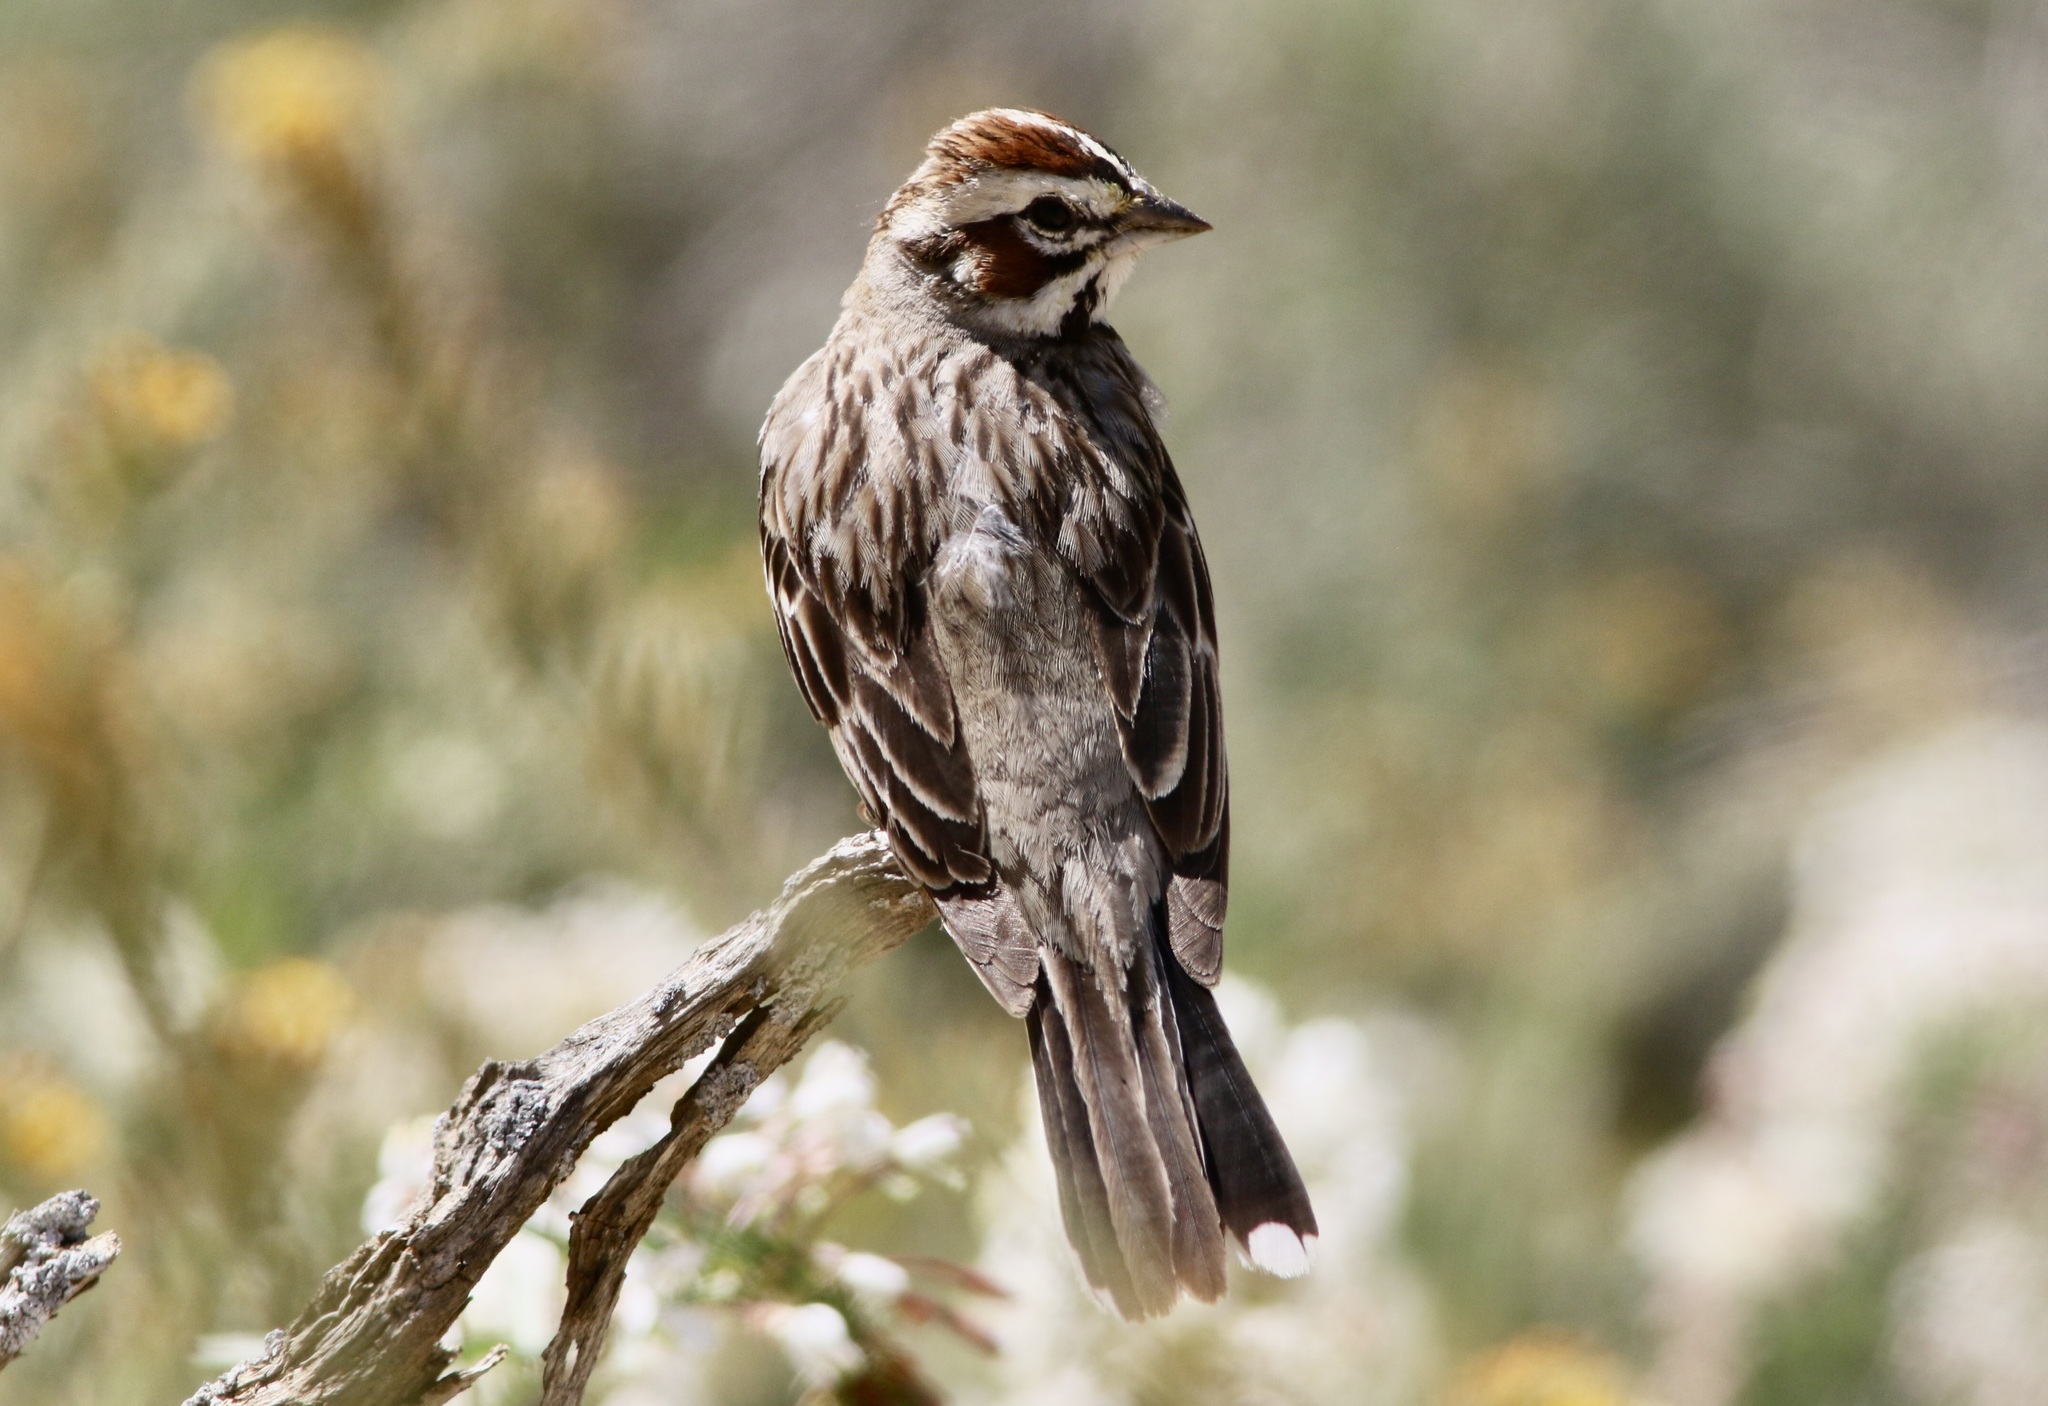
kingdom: Animalia
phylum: Chordata
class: Aves
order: Passeriformes
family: Passerellidae
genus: Chondestes
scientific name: Chondestes grammacus
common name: Lark sparrow
